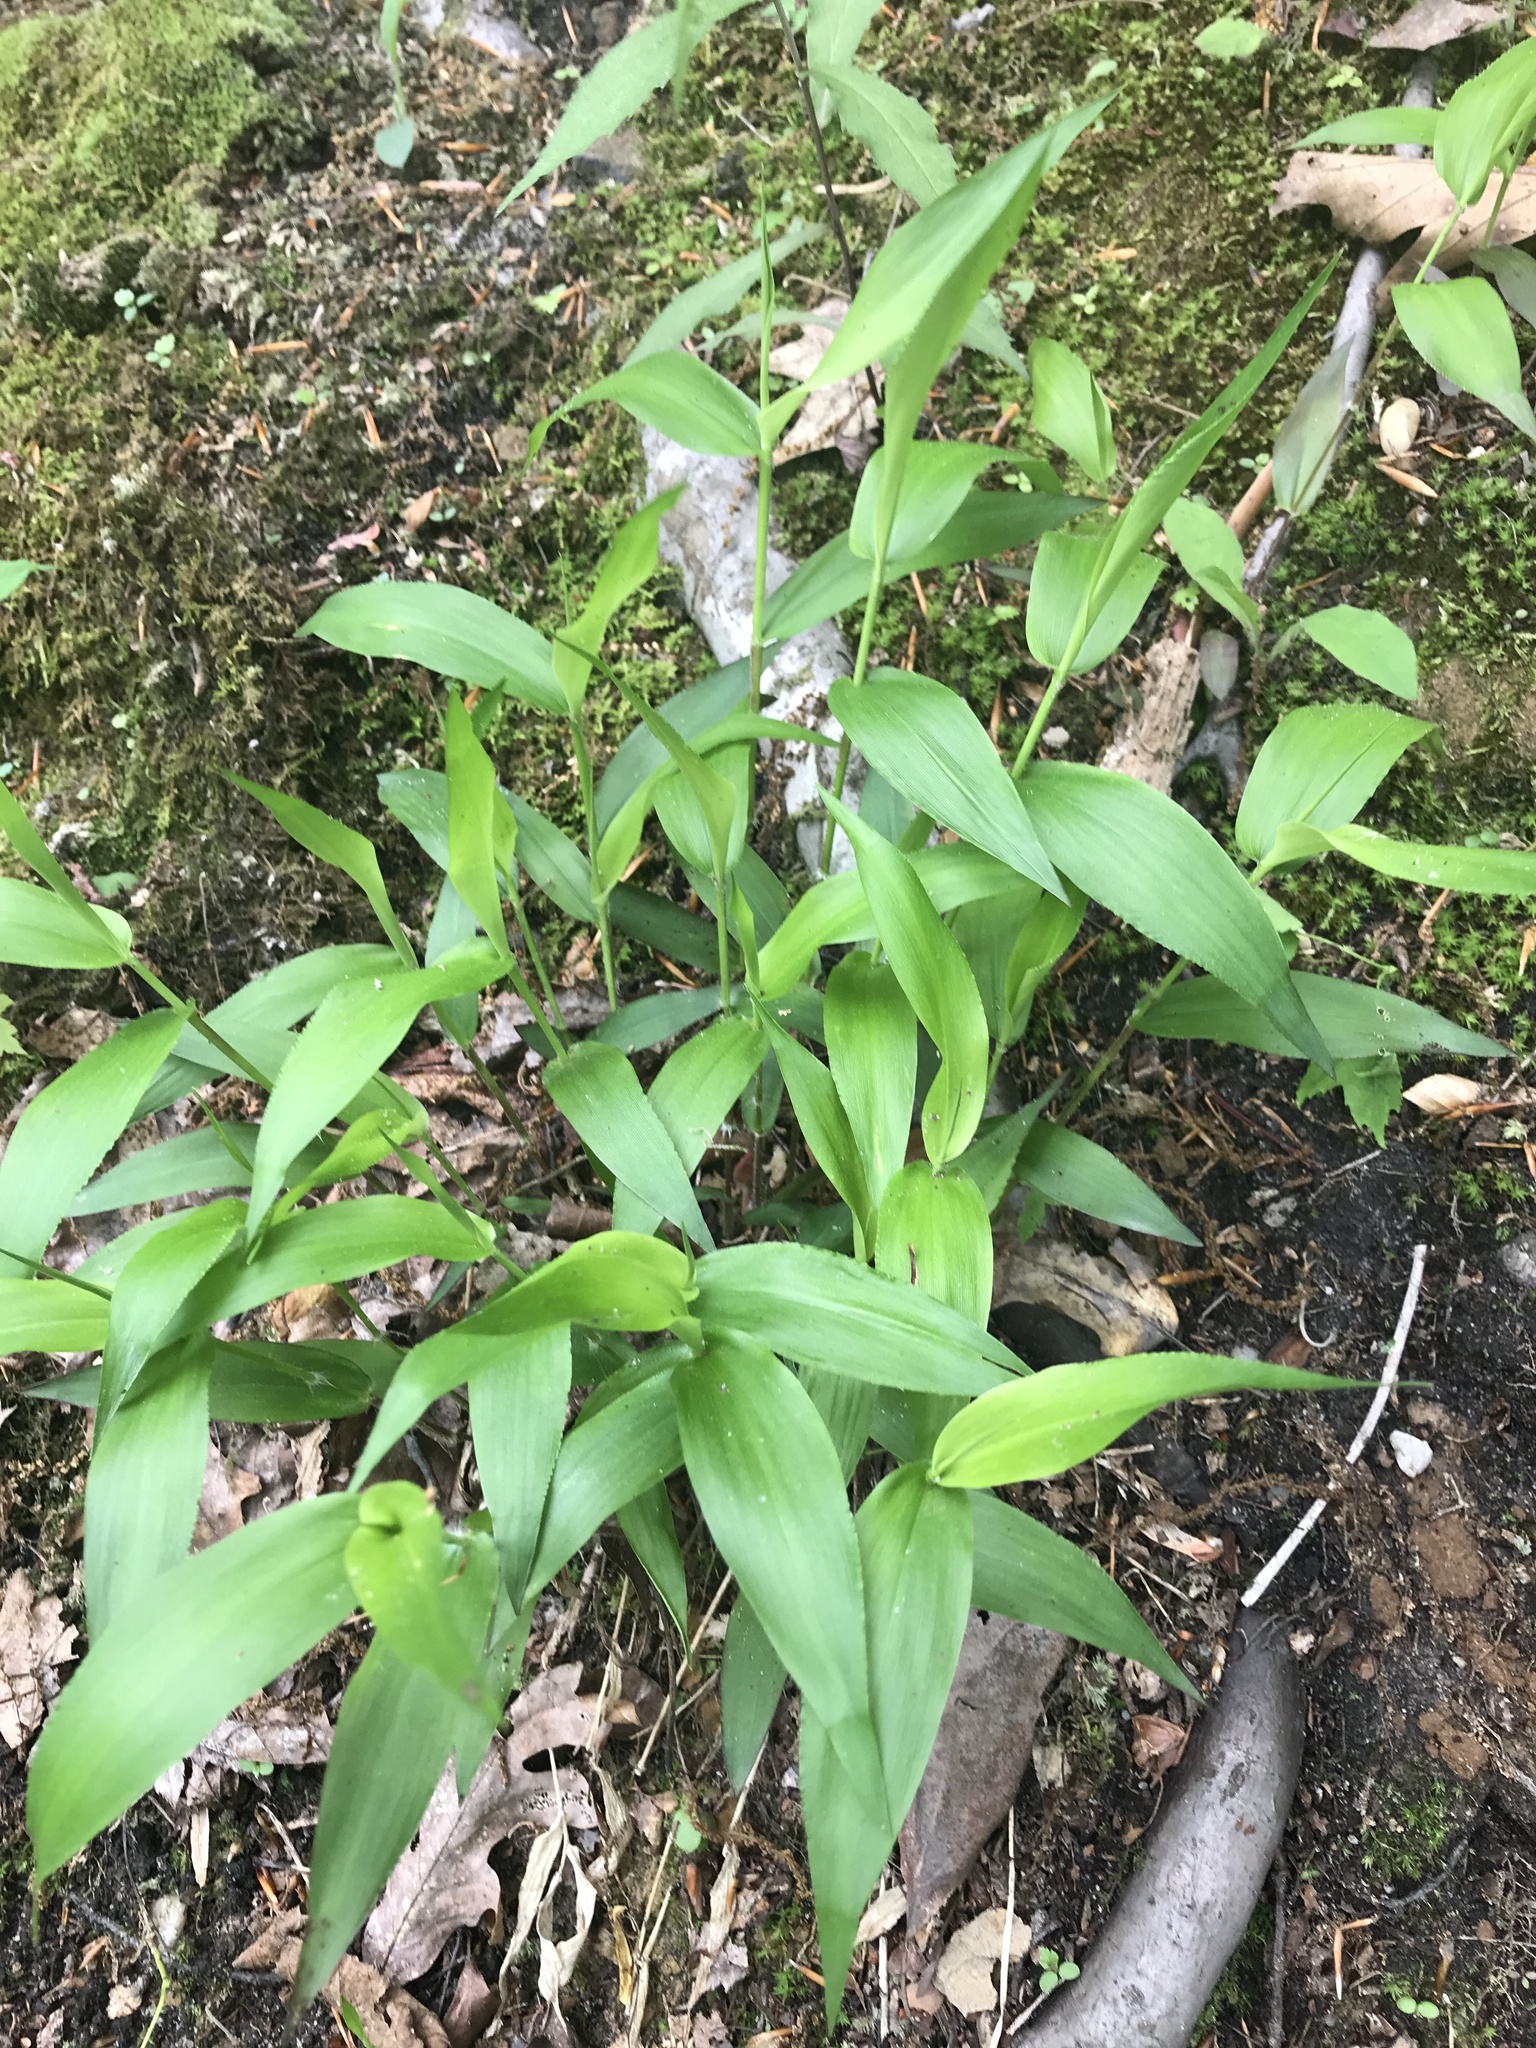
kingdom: Plantae
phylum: Tracheophyta
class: Liliopsida
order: Poales
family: Poaceae
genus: Dichanthelium
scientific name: Dichanthelium boscii
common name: Bosc's panic grass
